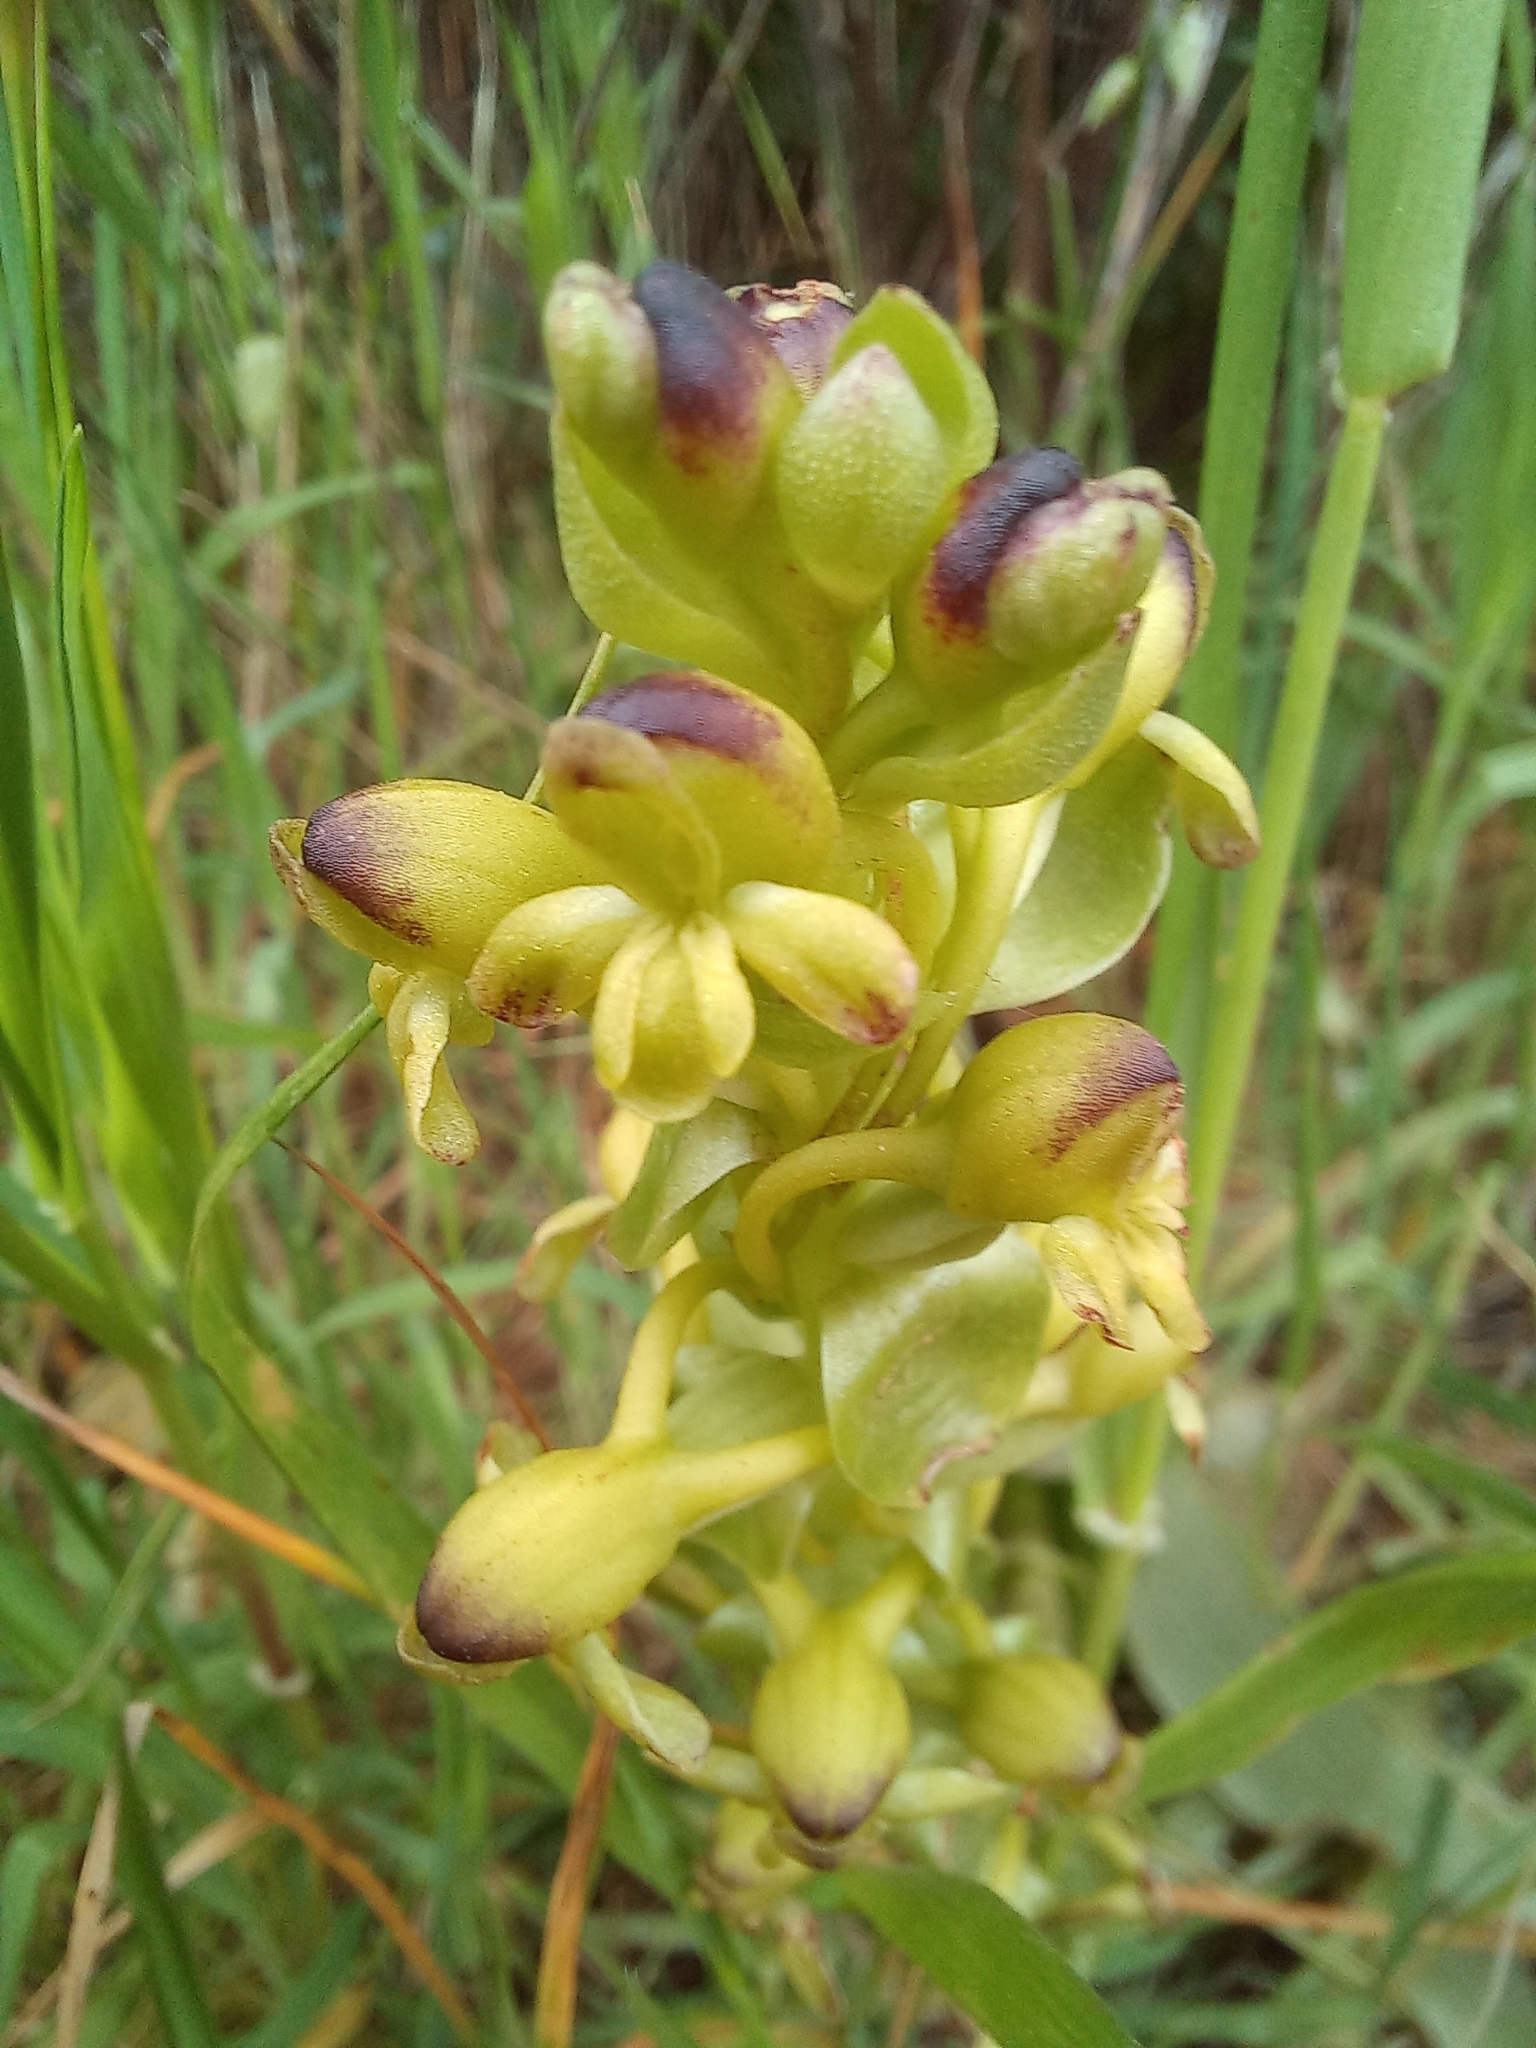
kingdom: Plantae
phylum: Tracheophyta
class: Liliopsida
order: Asparagales
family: Orchidaceae
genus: Satyrium
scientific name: Satyrium odorum
